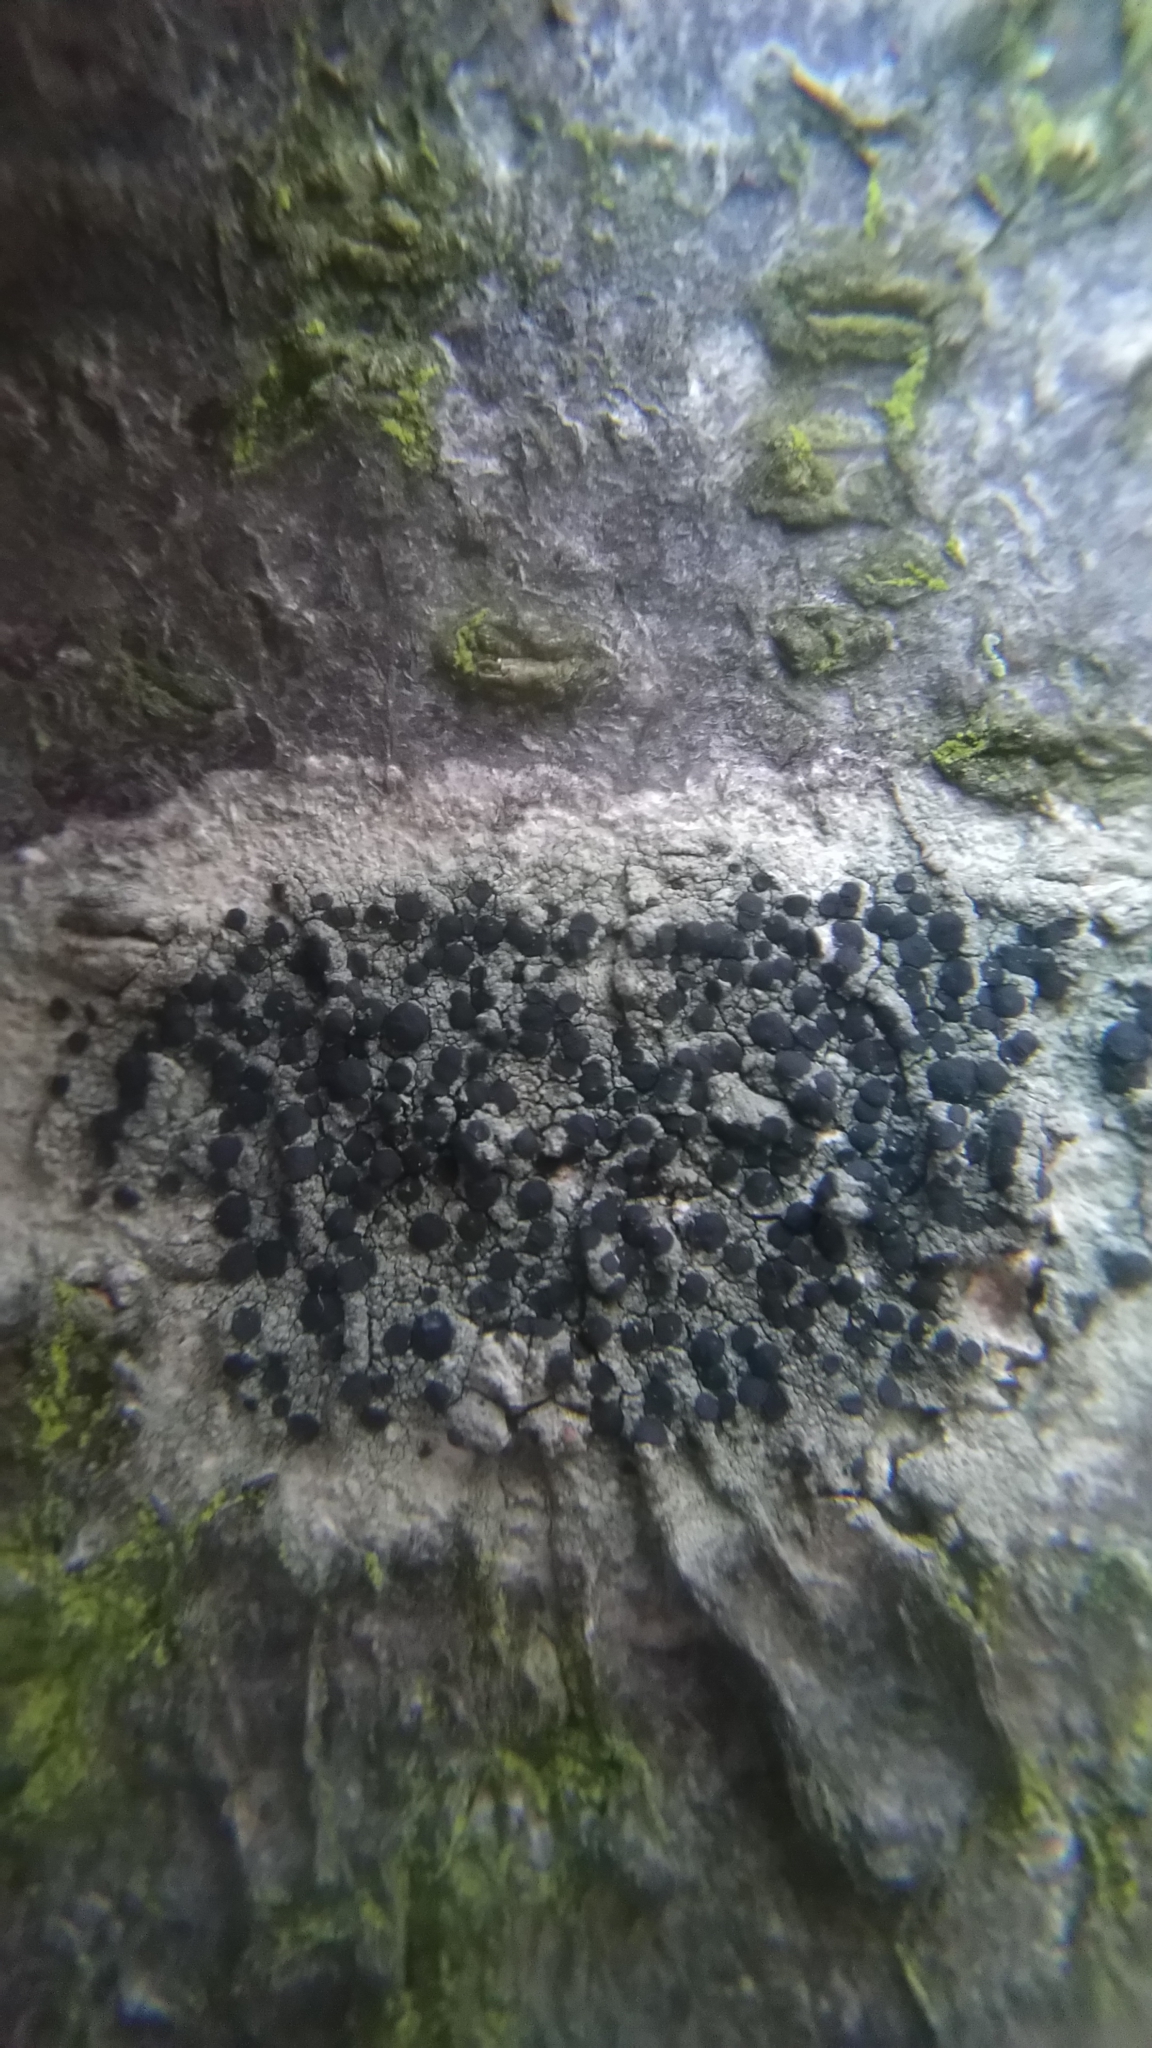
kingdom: Fungi
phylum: Ascomycota
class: Lecanoromycetes
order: Lecanorales
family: Lecanoraceae
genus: Lecidella
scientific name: Lecidella elaeochroma
